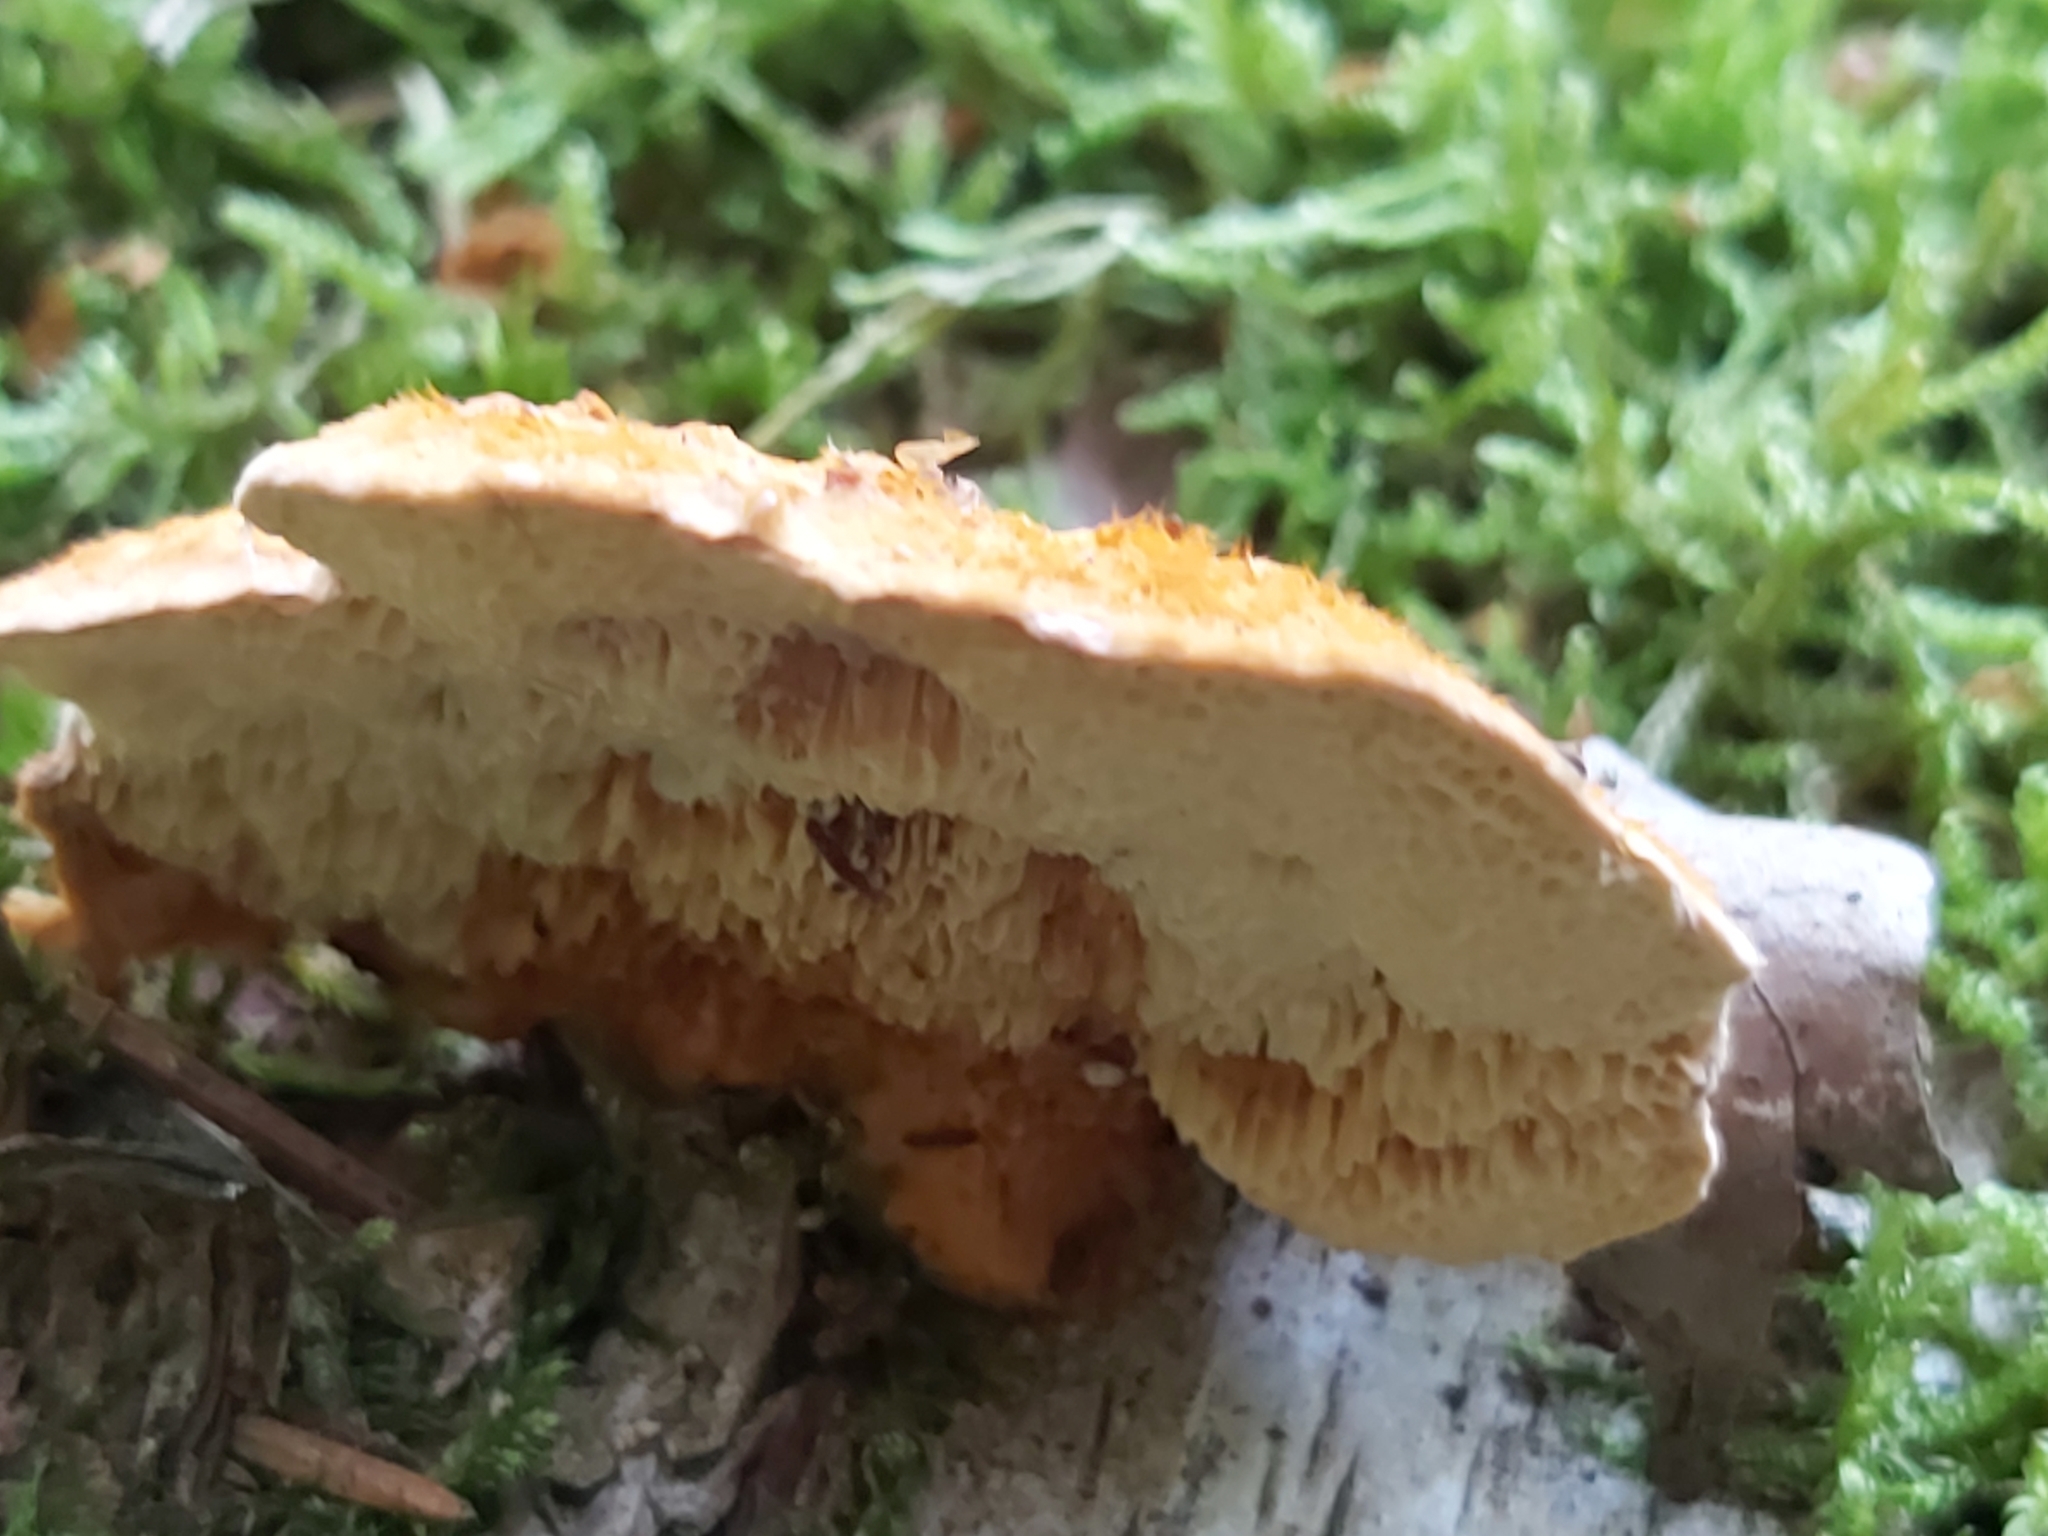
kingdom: Fungi
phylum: Basidiomycota
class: Agaricomycetes
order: Polyporales
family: Pycnoporellaceae
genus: Pycnoporellus
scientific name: Pycnoporellus fulgens
